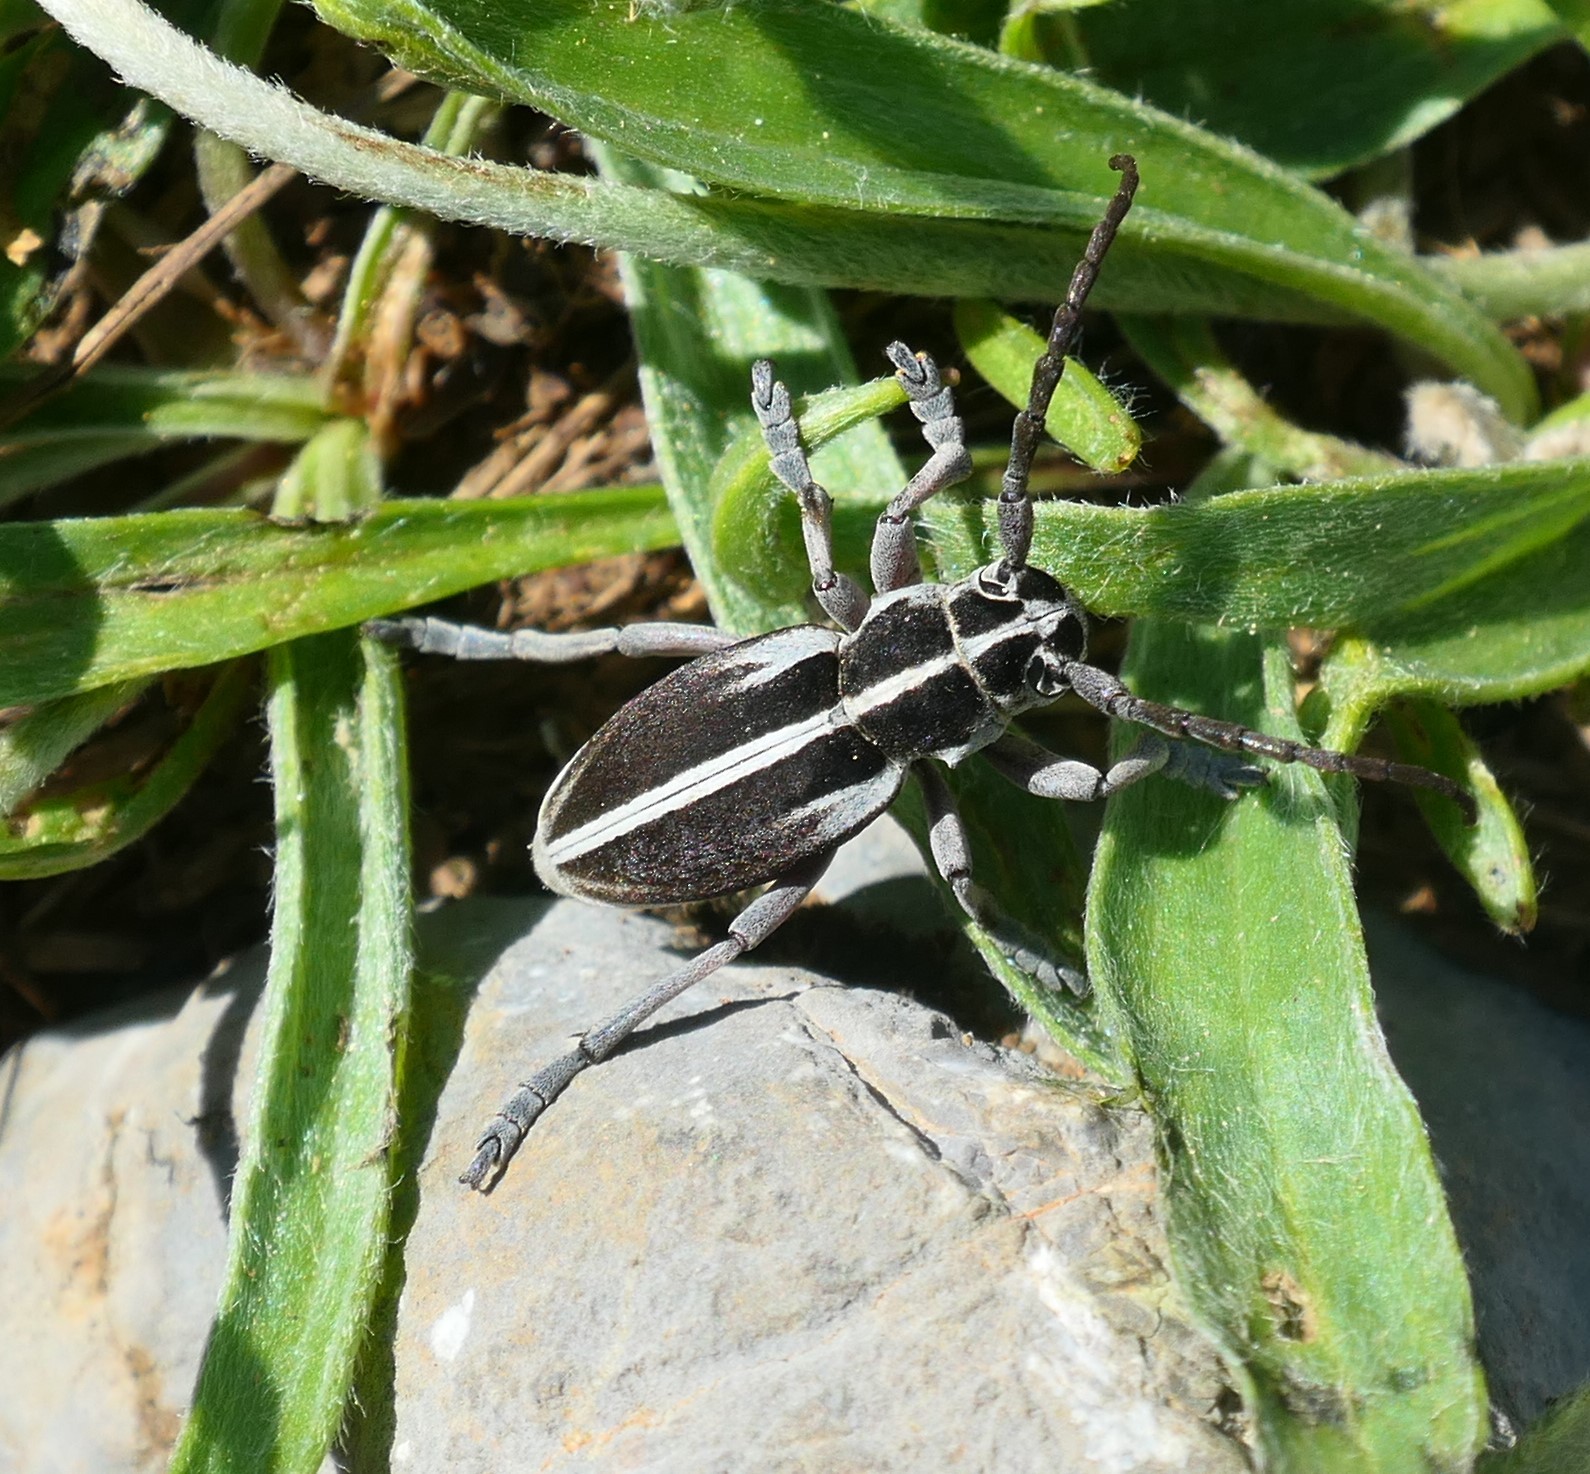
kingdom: Animalia
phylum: Arthropoda
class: Insecta
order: Coleoptera
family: Cerambycidae
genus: Dorcadion
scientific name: Dorcadion arenarium
